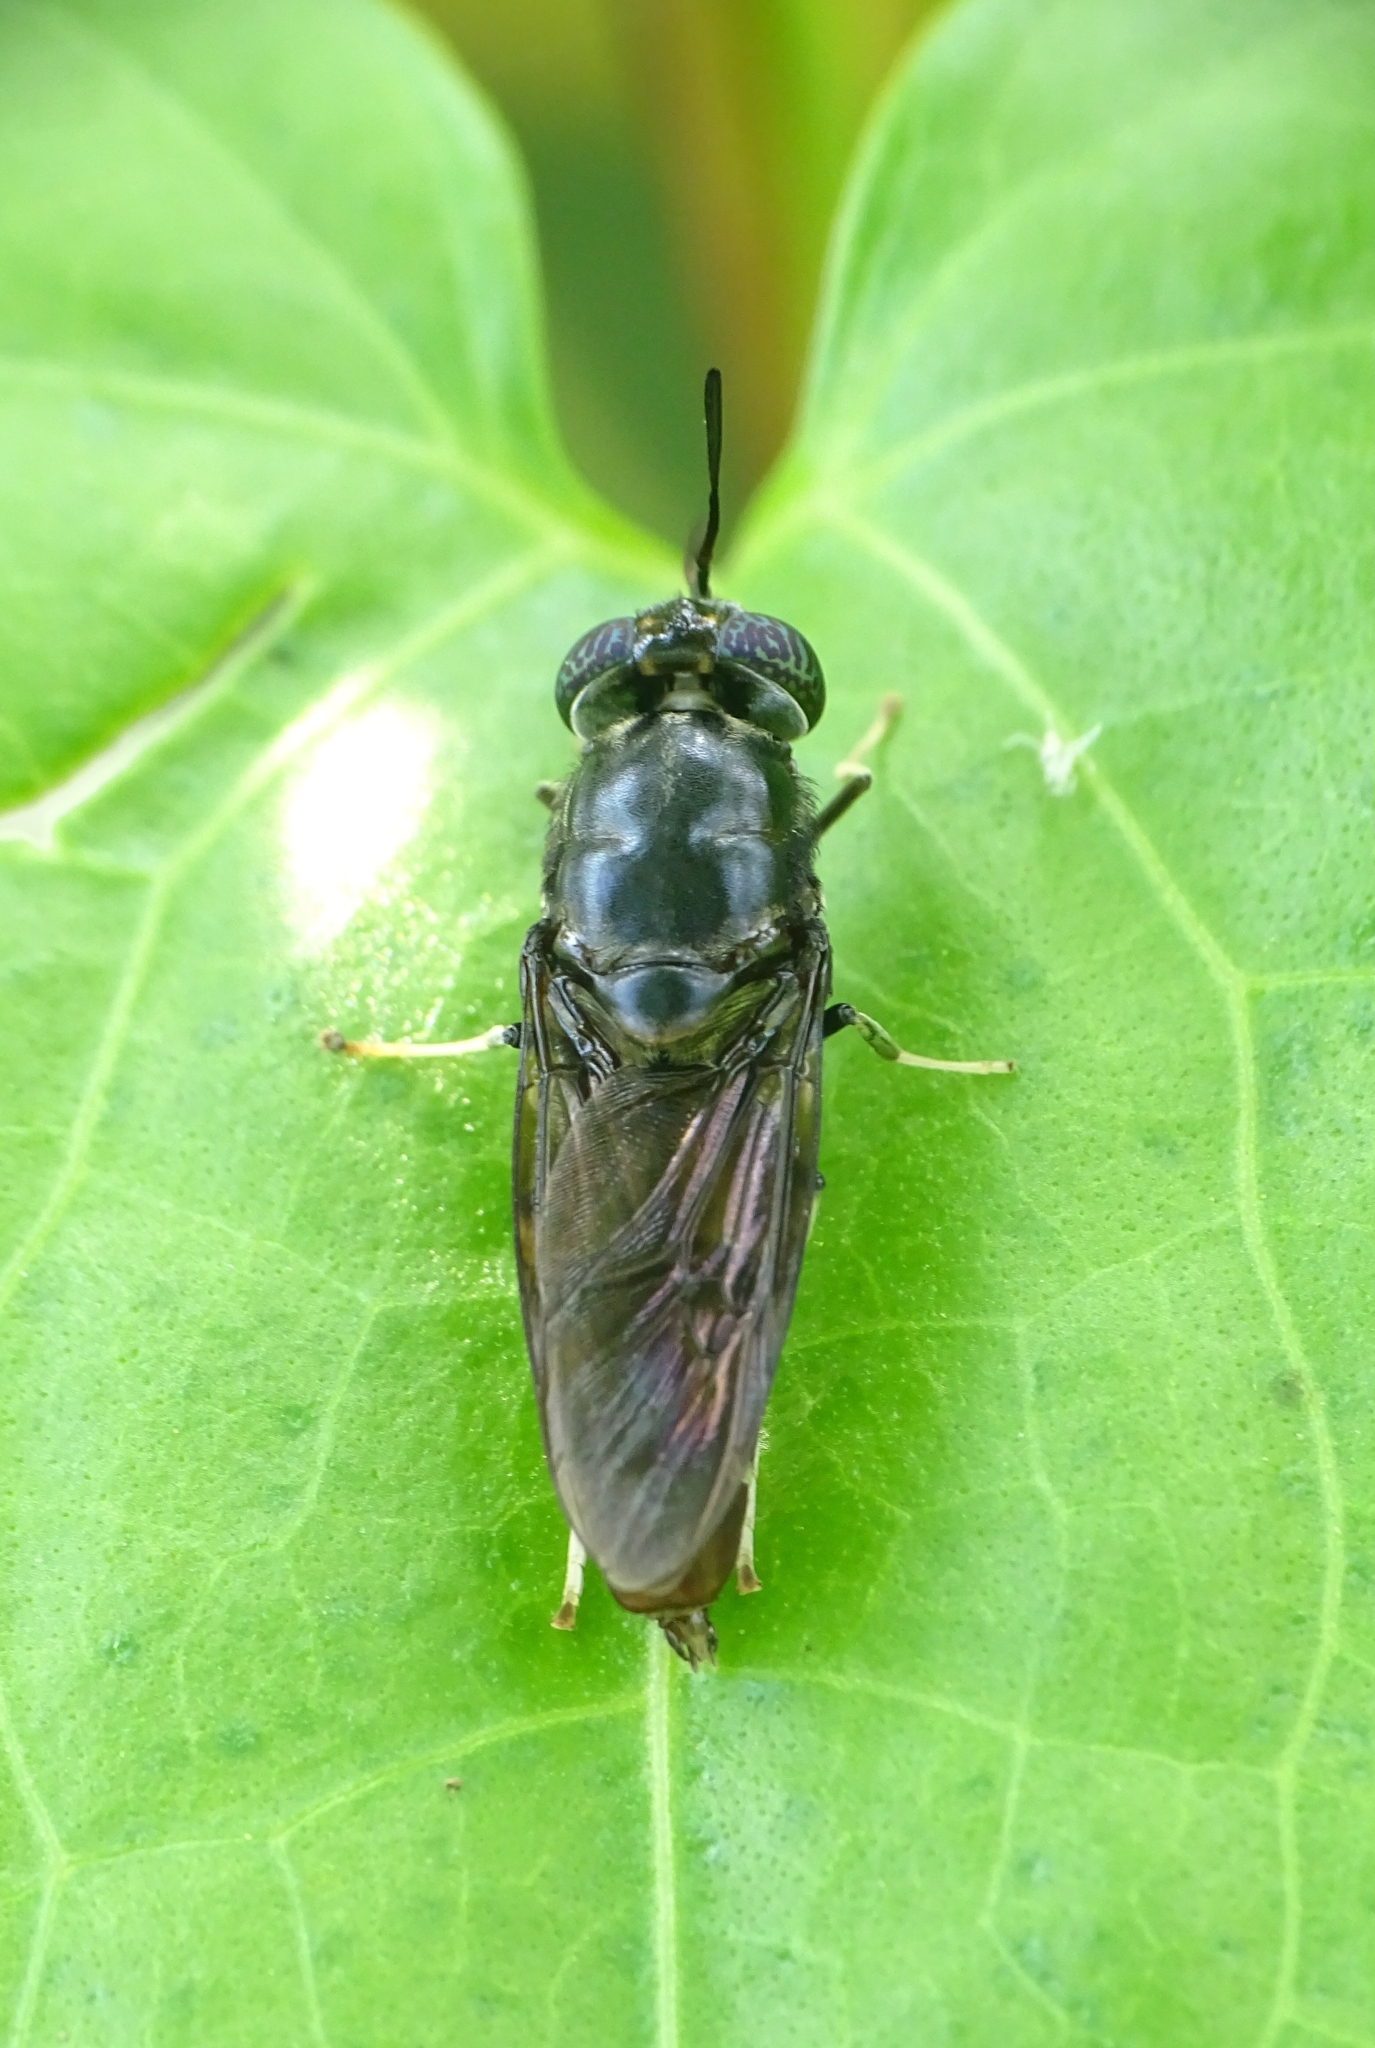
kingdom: Animalia
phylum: Arthropoda
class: Insecta
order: Diptera
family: Stratiomyidae
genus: Hermetia
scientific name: Hermetia illucens
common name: Black soldier fly
